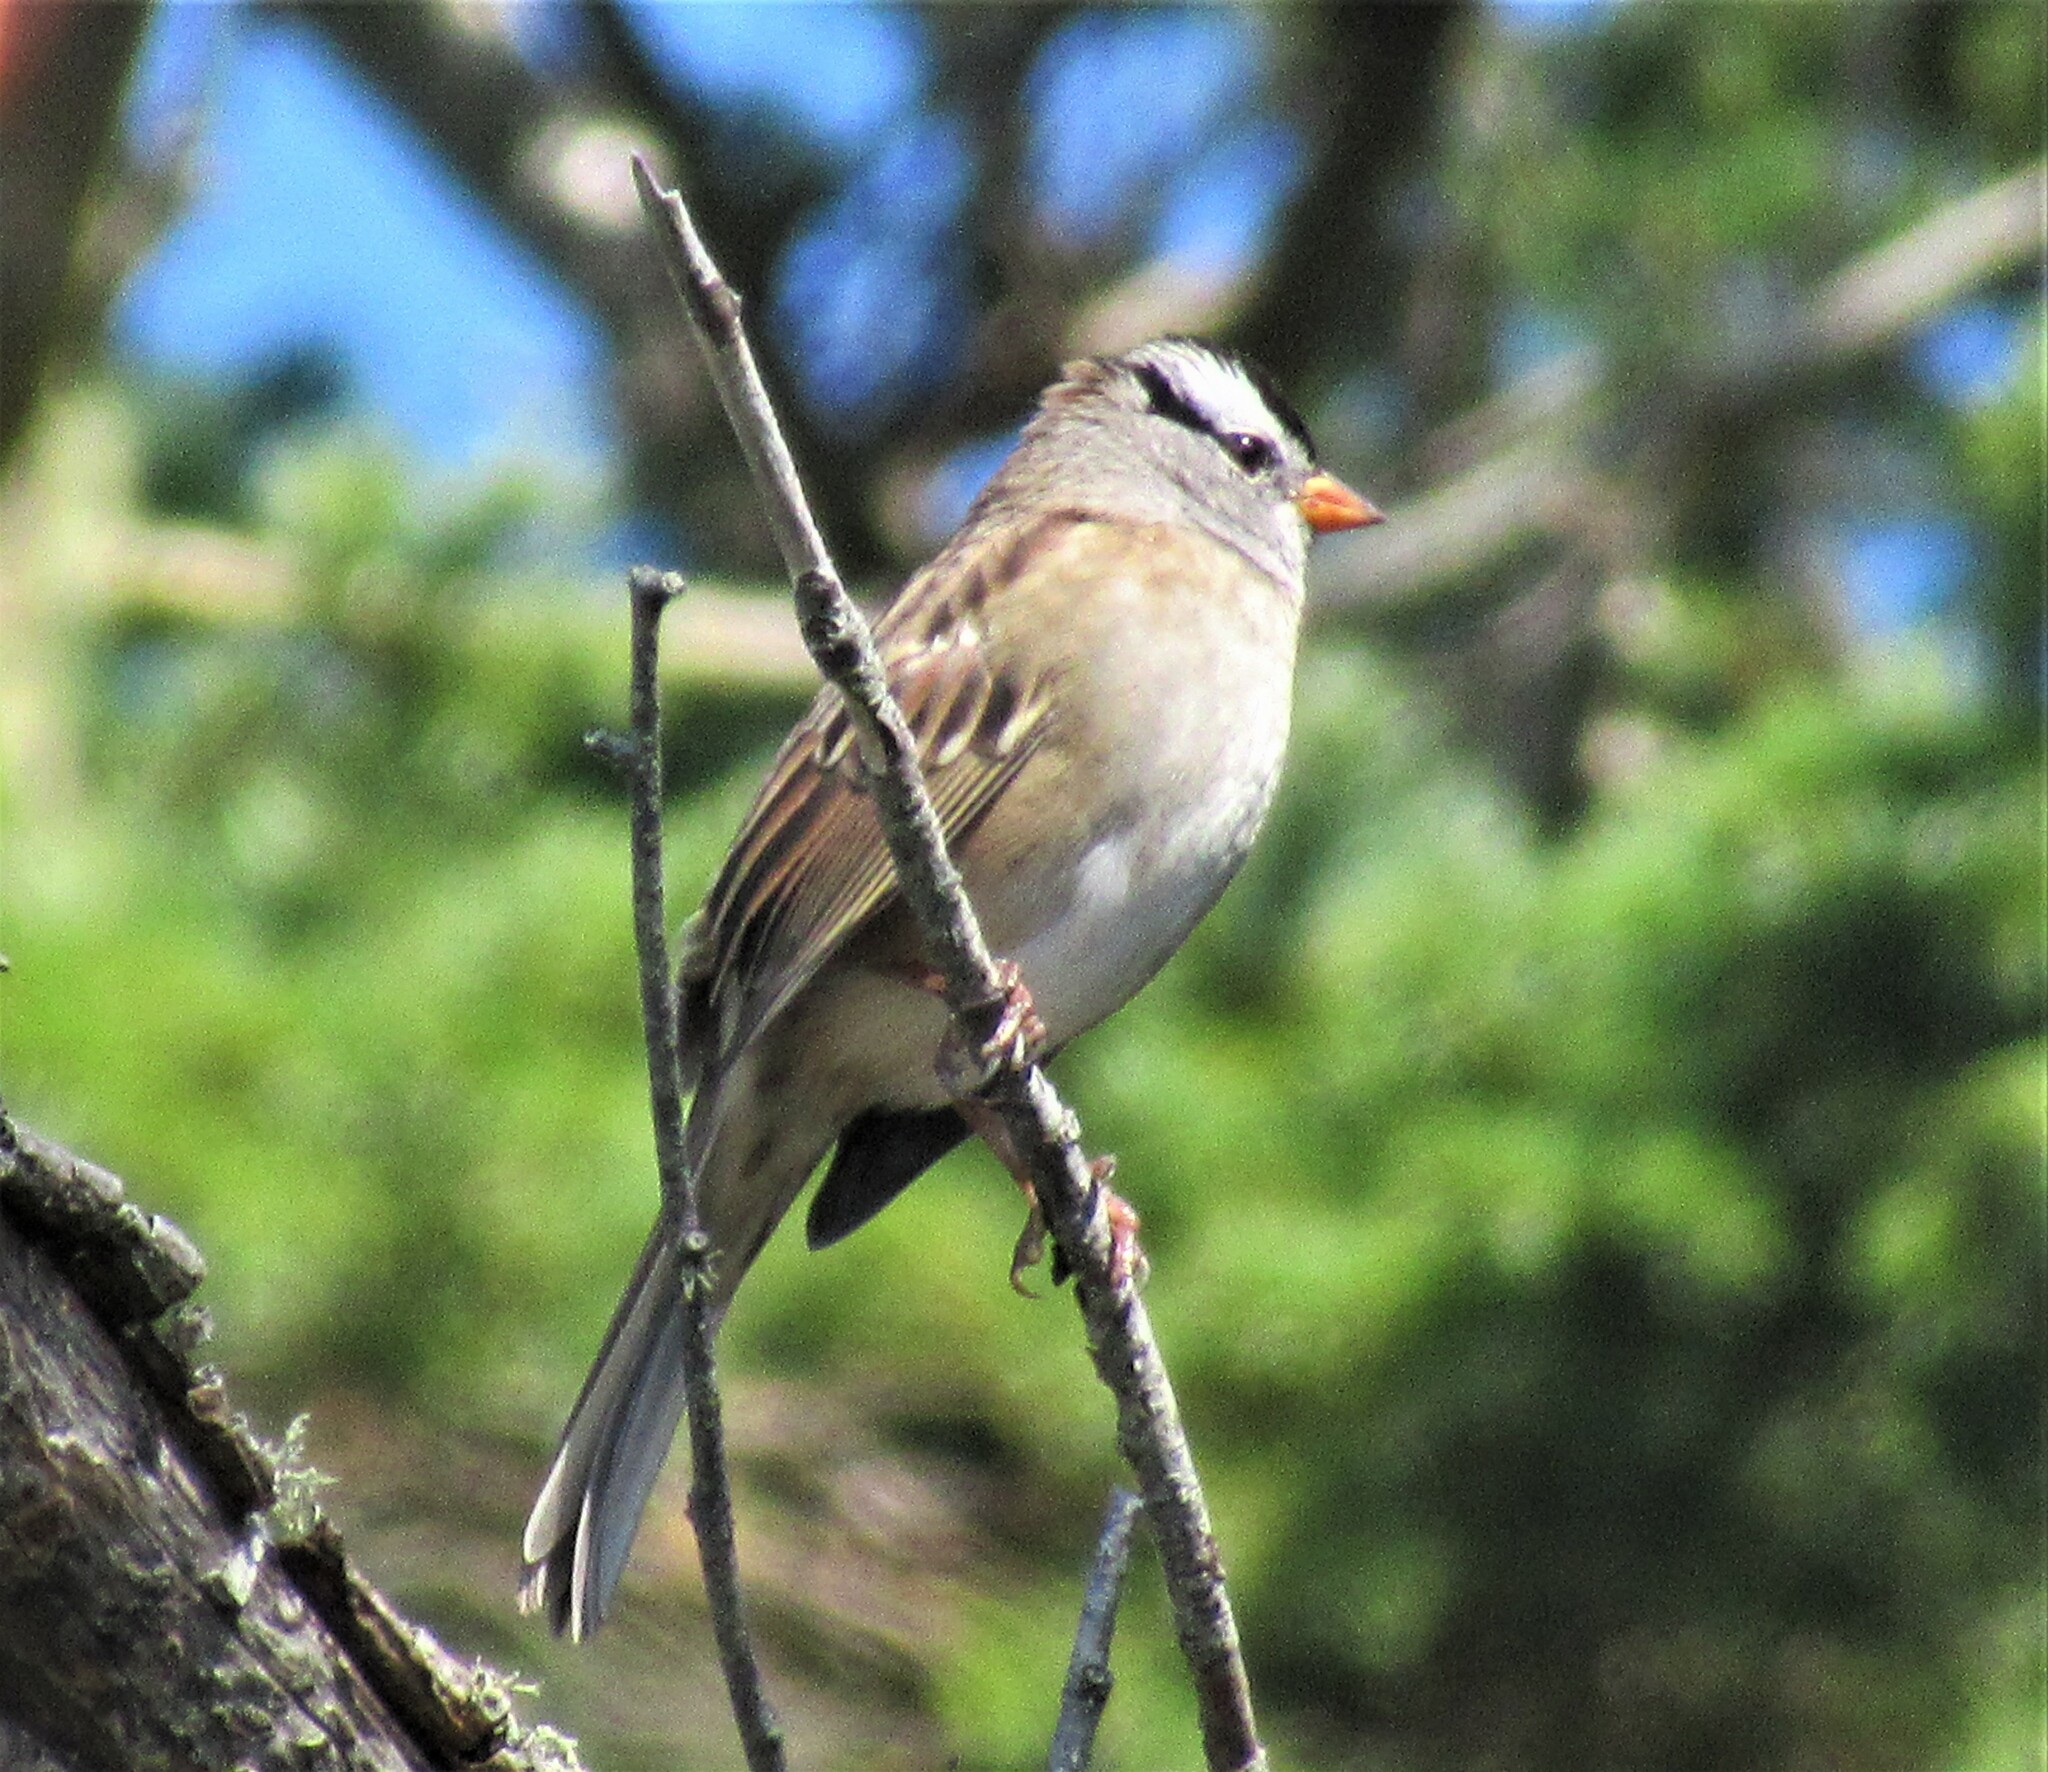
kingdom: Animalia
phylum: Chordata
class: Aves
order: Passeriformes
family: Passerellidae
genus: Zonotrichia
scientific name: Zonotrichia leucophrys
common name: White-crowned sparrow
